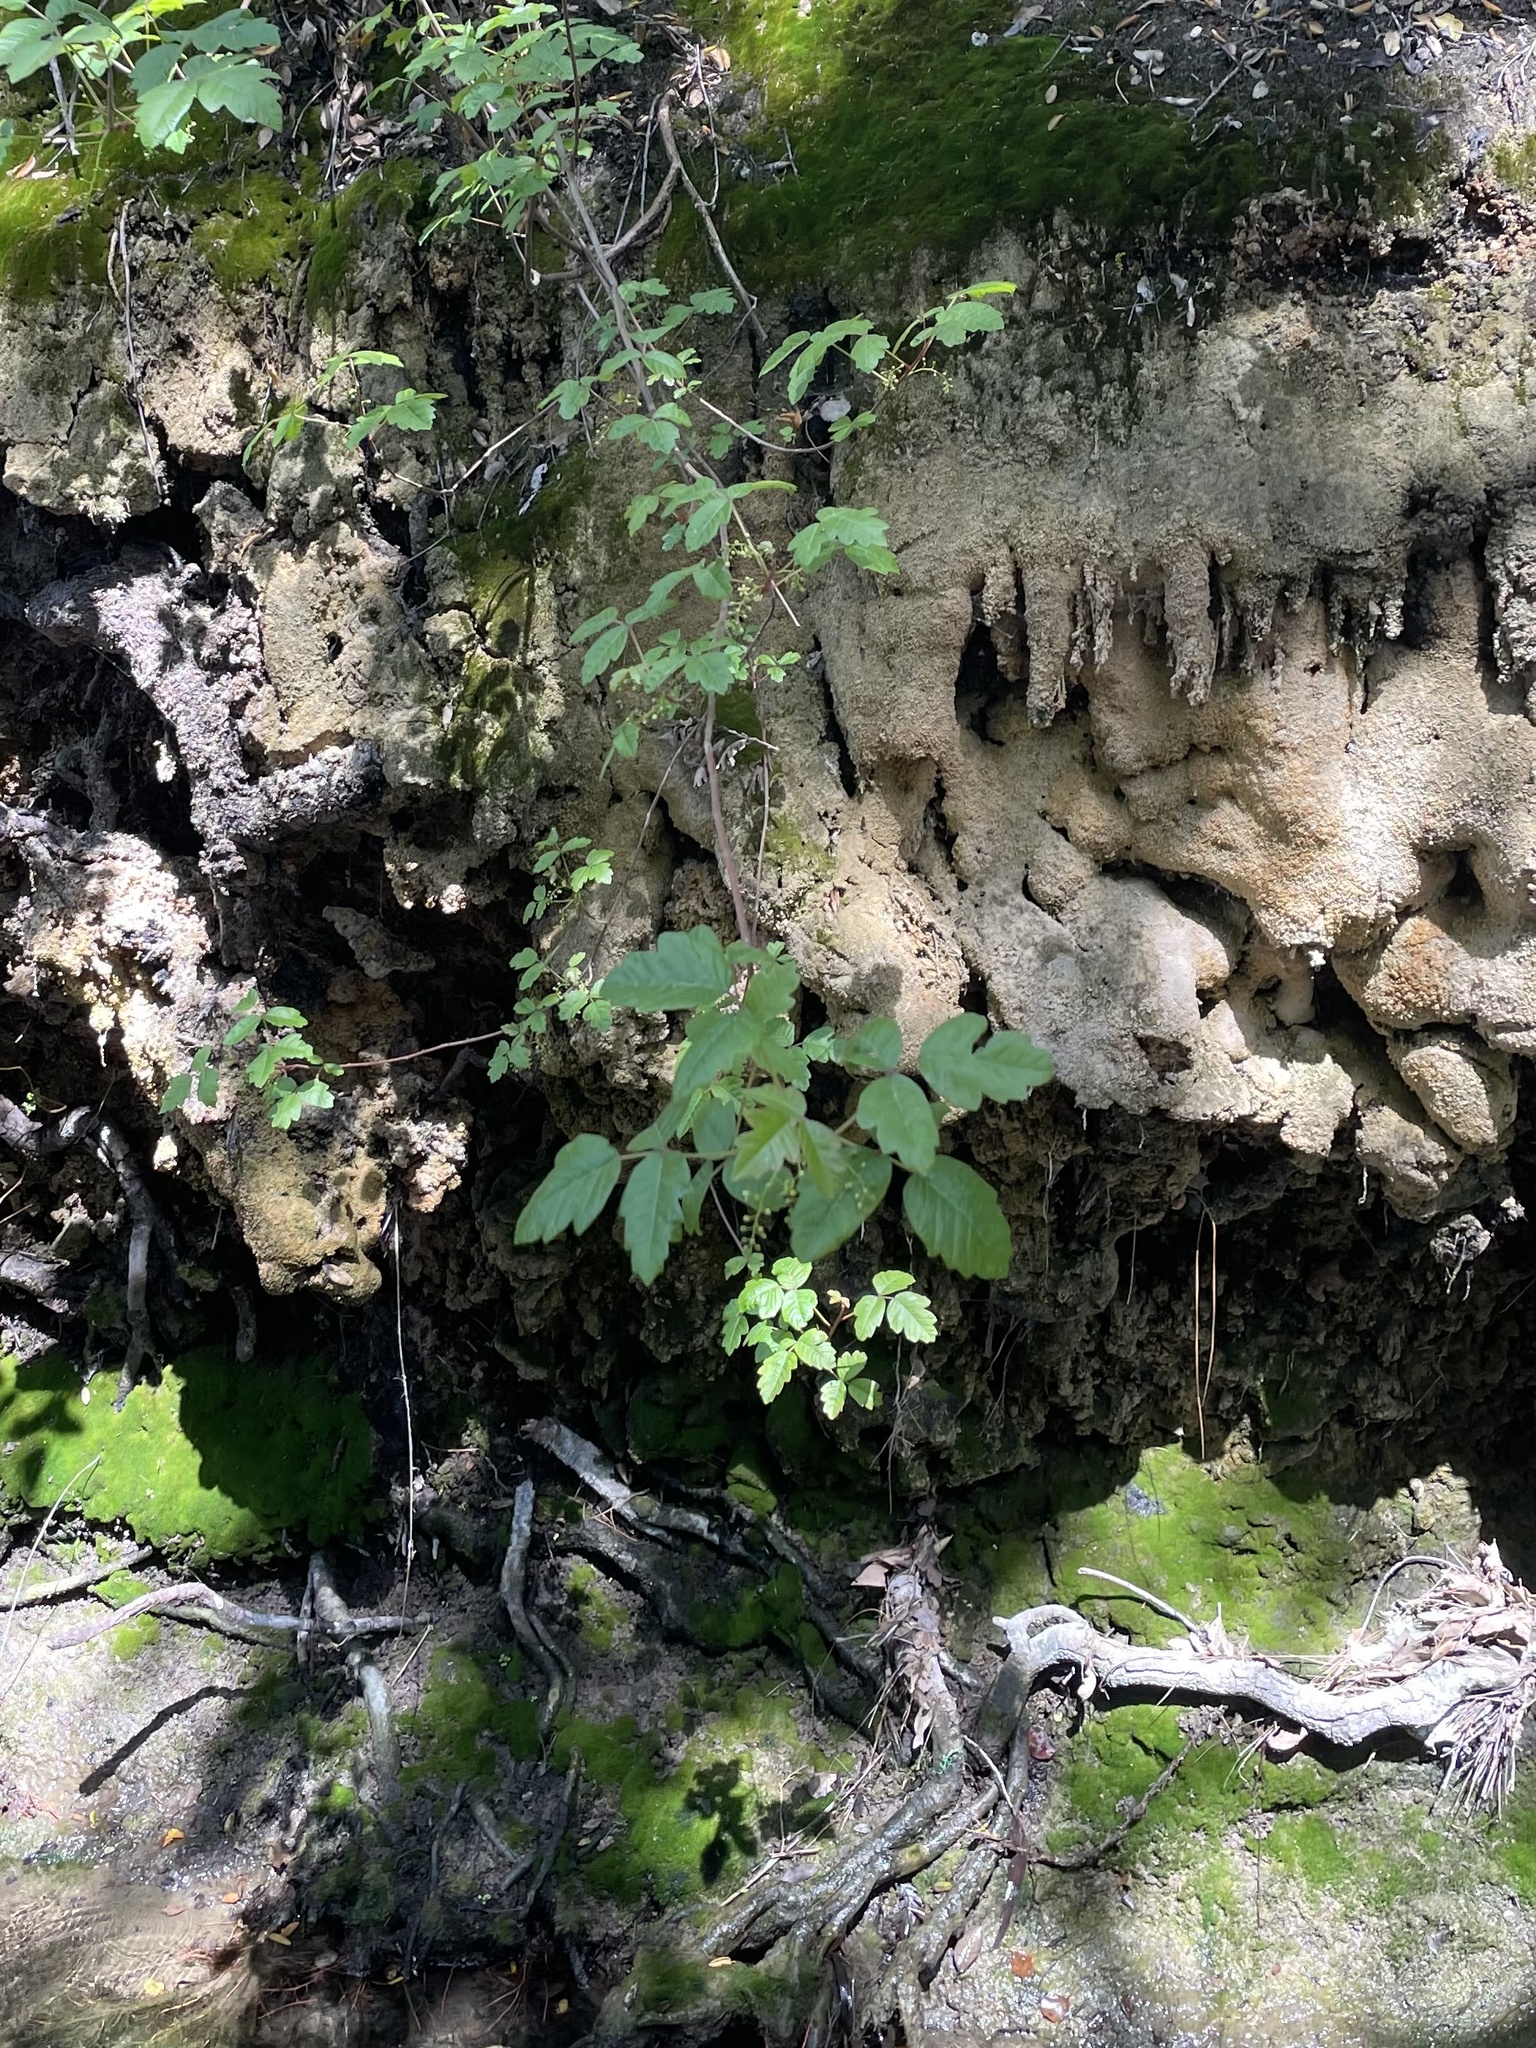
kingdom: Plantae
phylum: Tracheophyta
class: Magnoliopsida
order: Sapindales
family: Anacardiaceae
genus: Toxicodendron
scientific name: Toxicodendron diversilobum
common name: Pacific poison-oak
